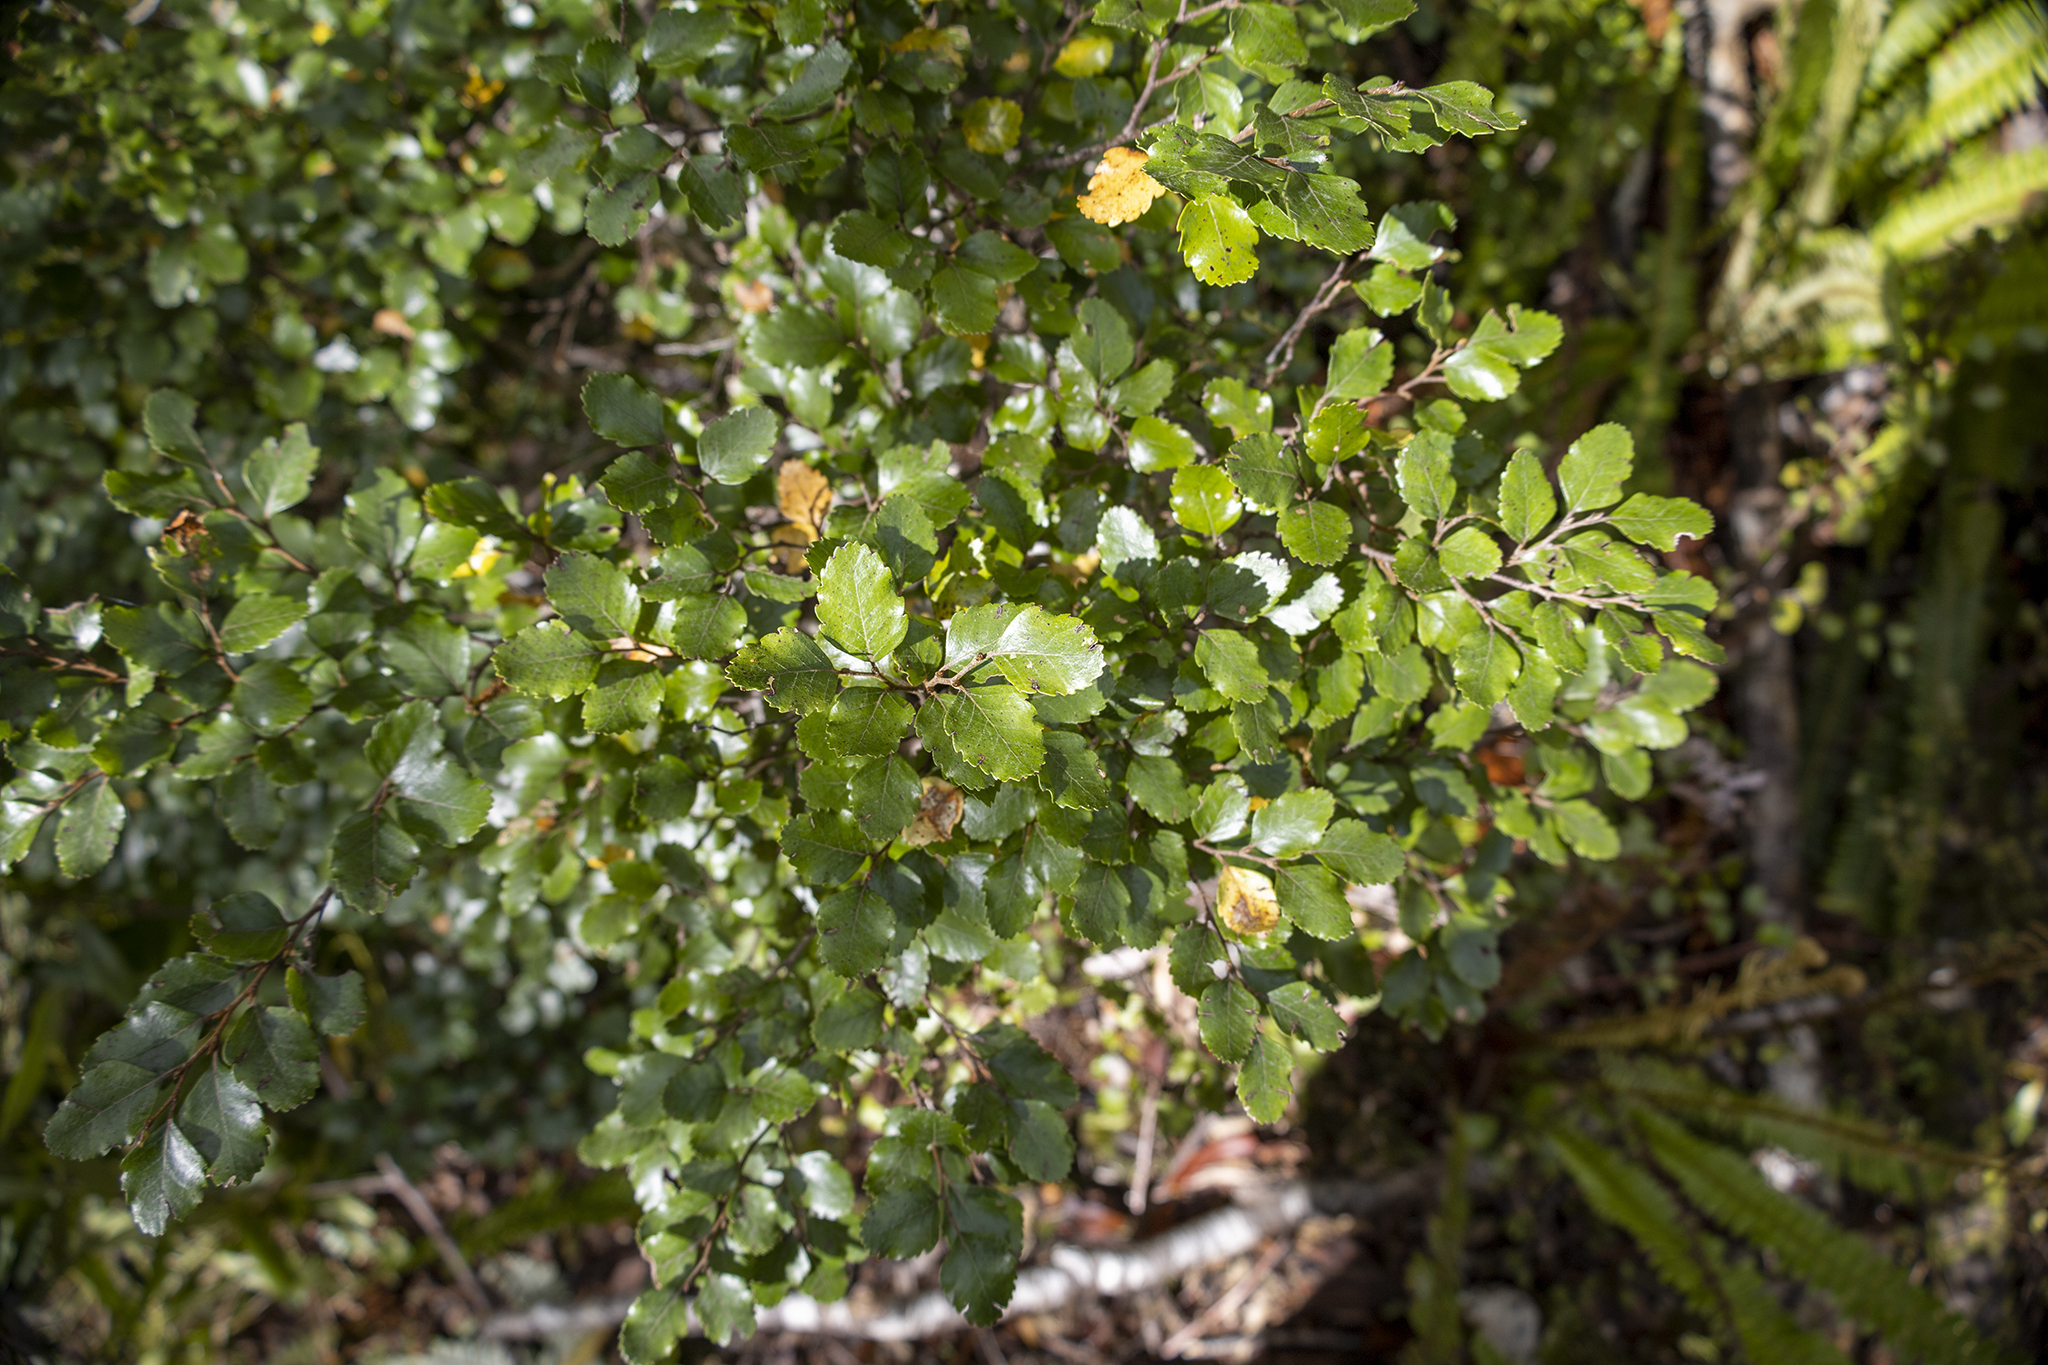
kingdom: Plantae
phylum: Tracheophyta
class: Magnoliopsida
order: Fagales
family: Nothofagaceae
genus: Nothofagus
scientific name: Nothofagus truncata
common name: Hard beech
